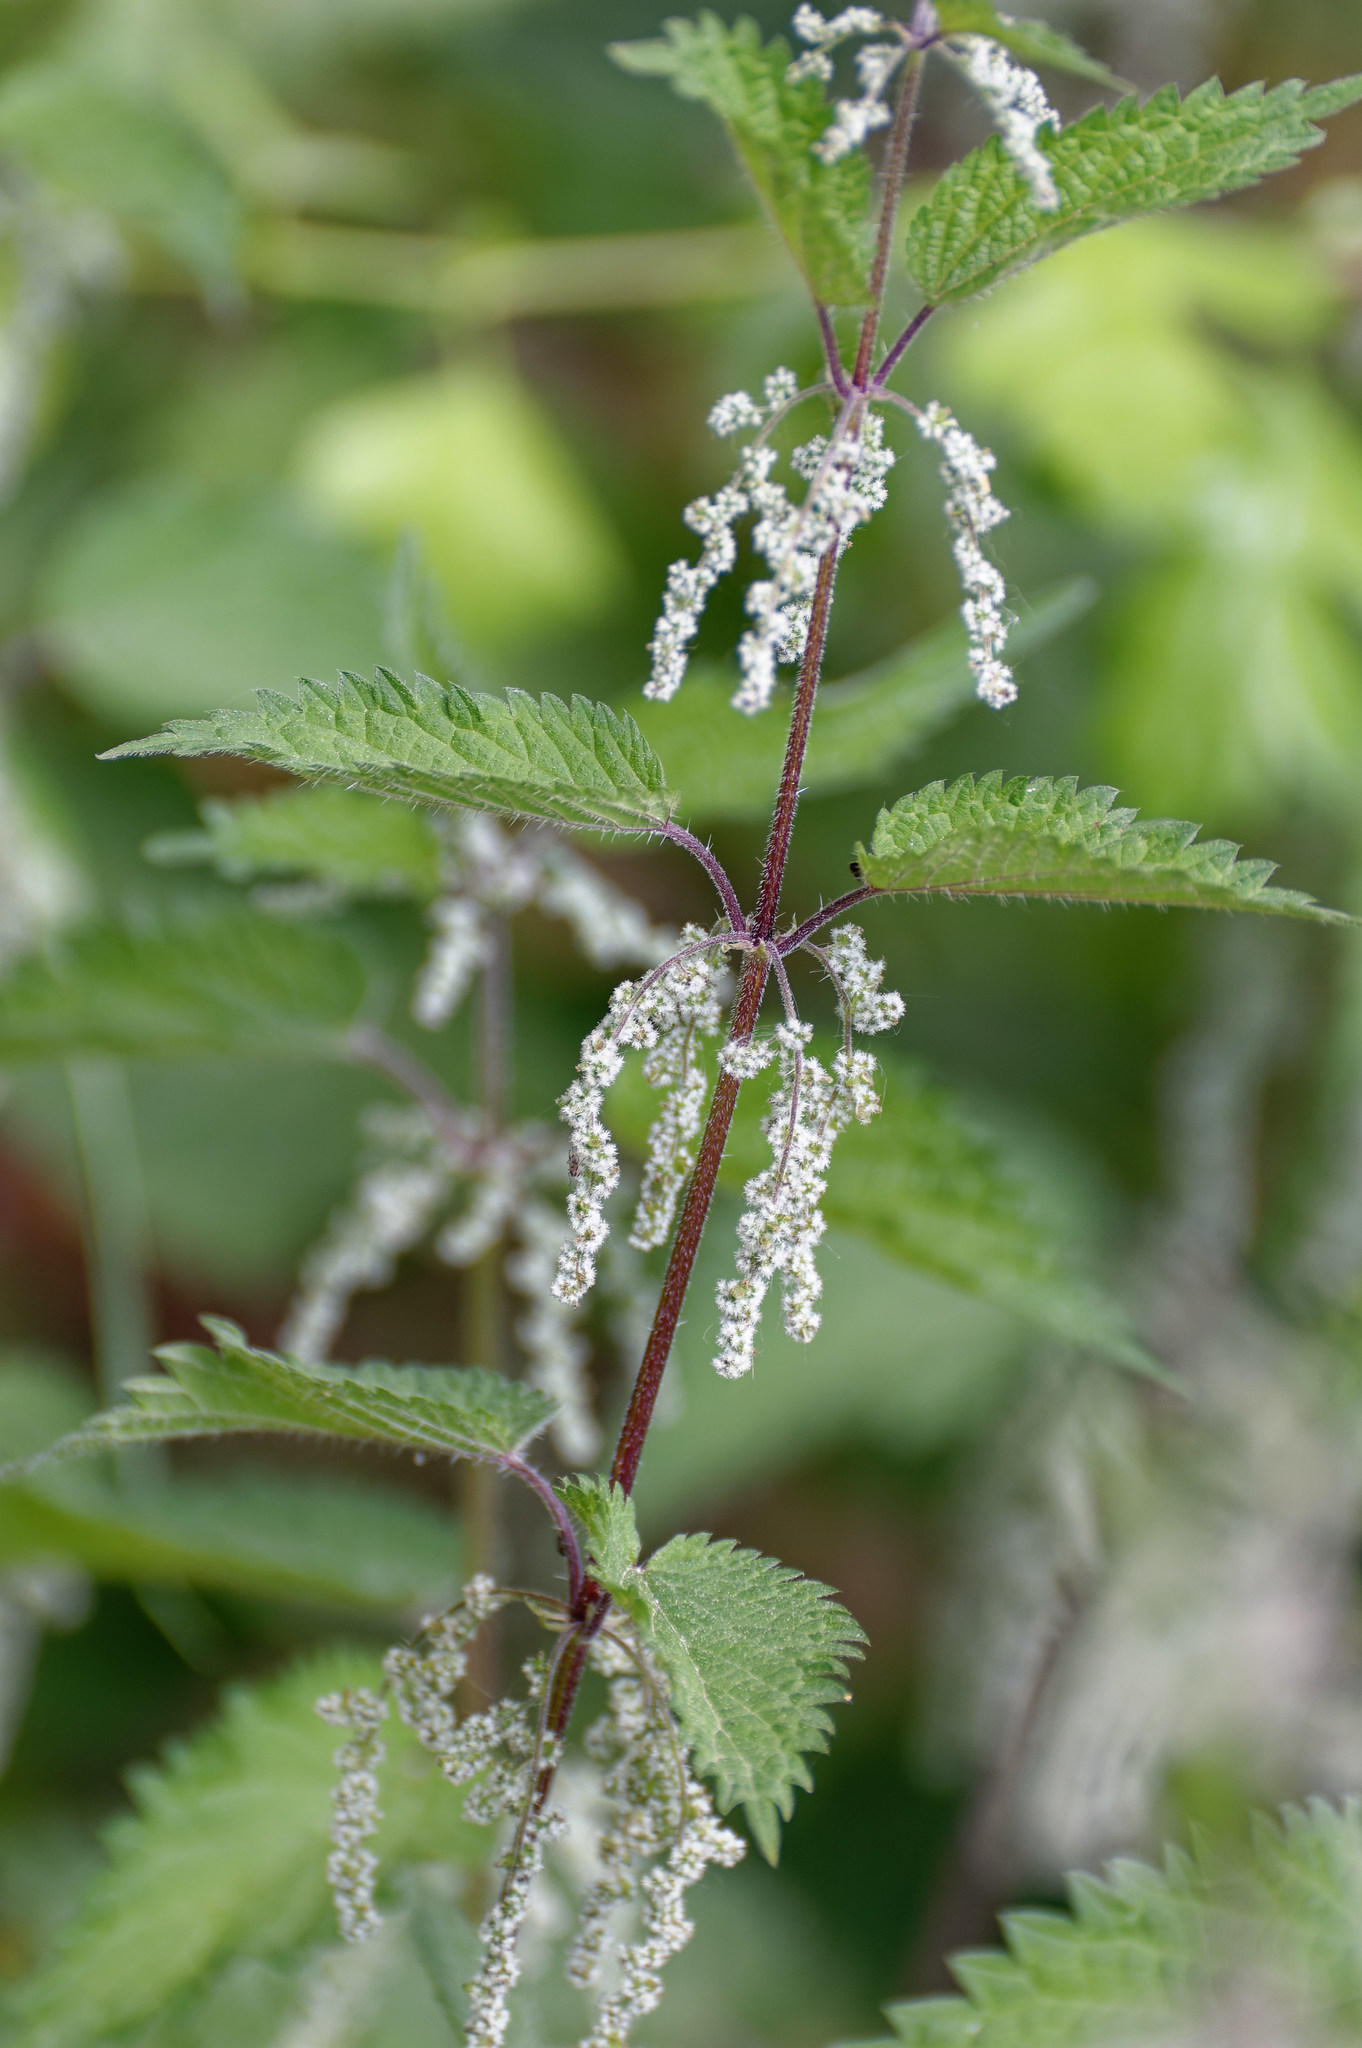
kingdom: Plantae
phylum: Tracheophyta
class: Magnoliopsida
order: Rosales
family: Urticaceae
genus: Urtica
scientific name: Urtica dioica
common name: Common nettle
